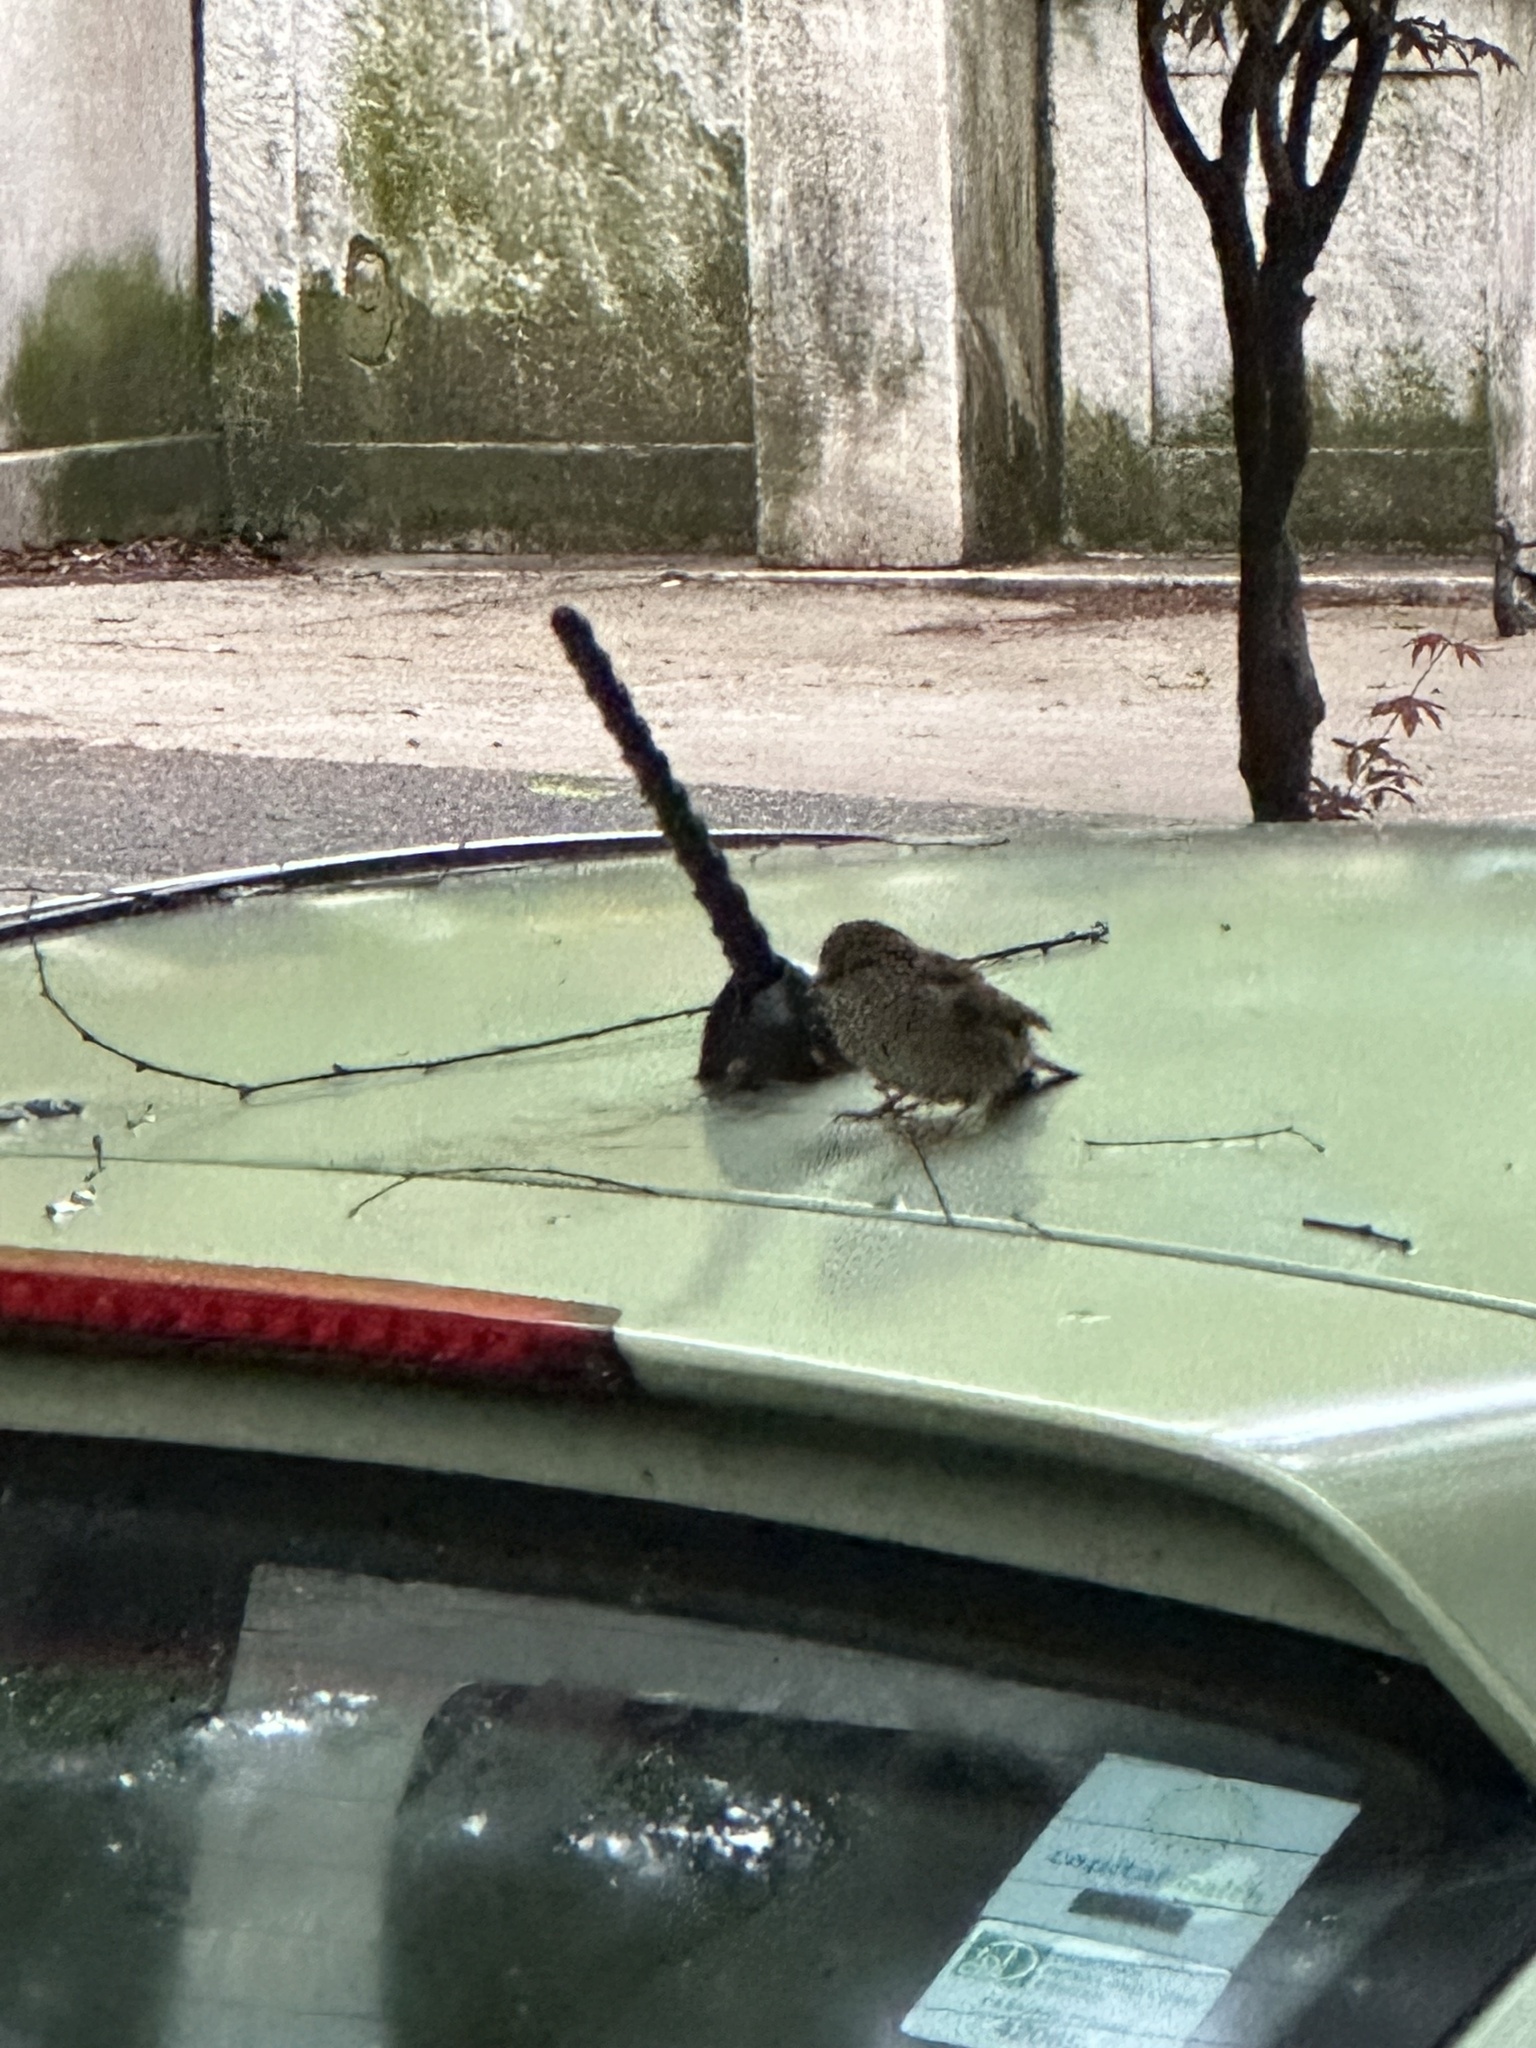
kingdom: Animalia
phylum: Chordata
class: Aves
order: Passeriformes
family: Passeridae
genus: Passer
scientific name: Passer domesticus
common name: House sparrow
